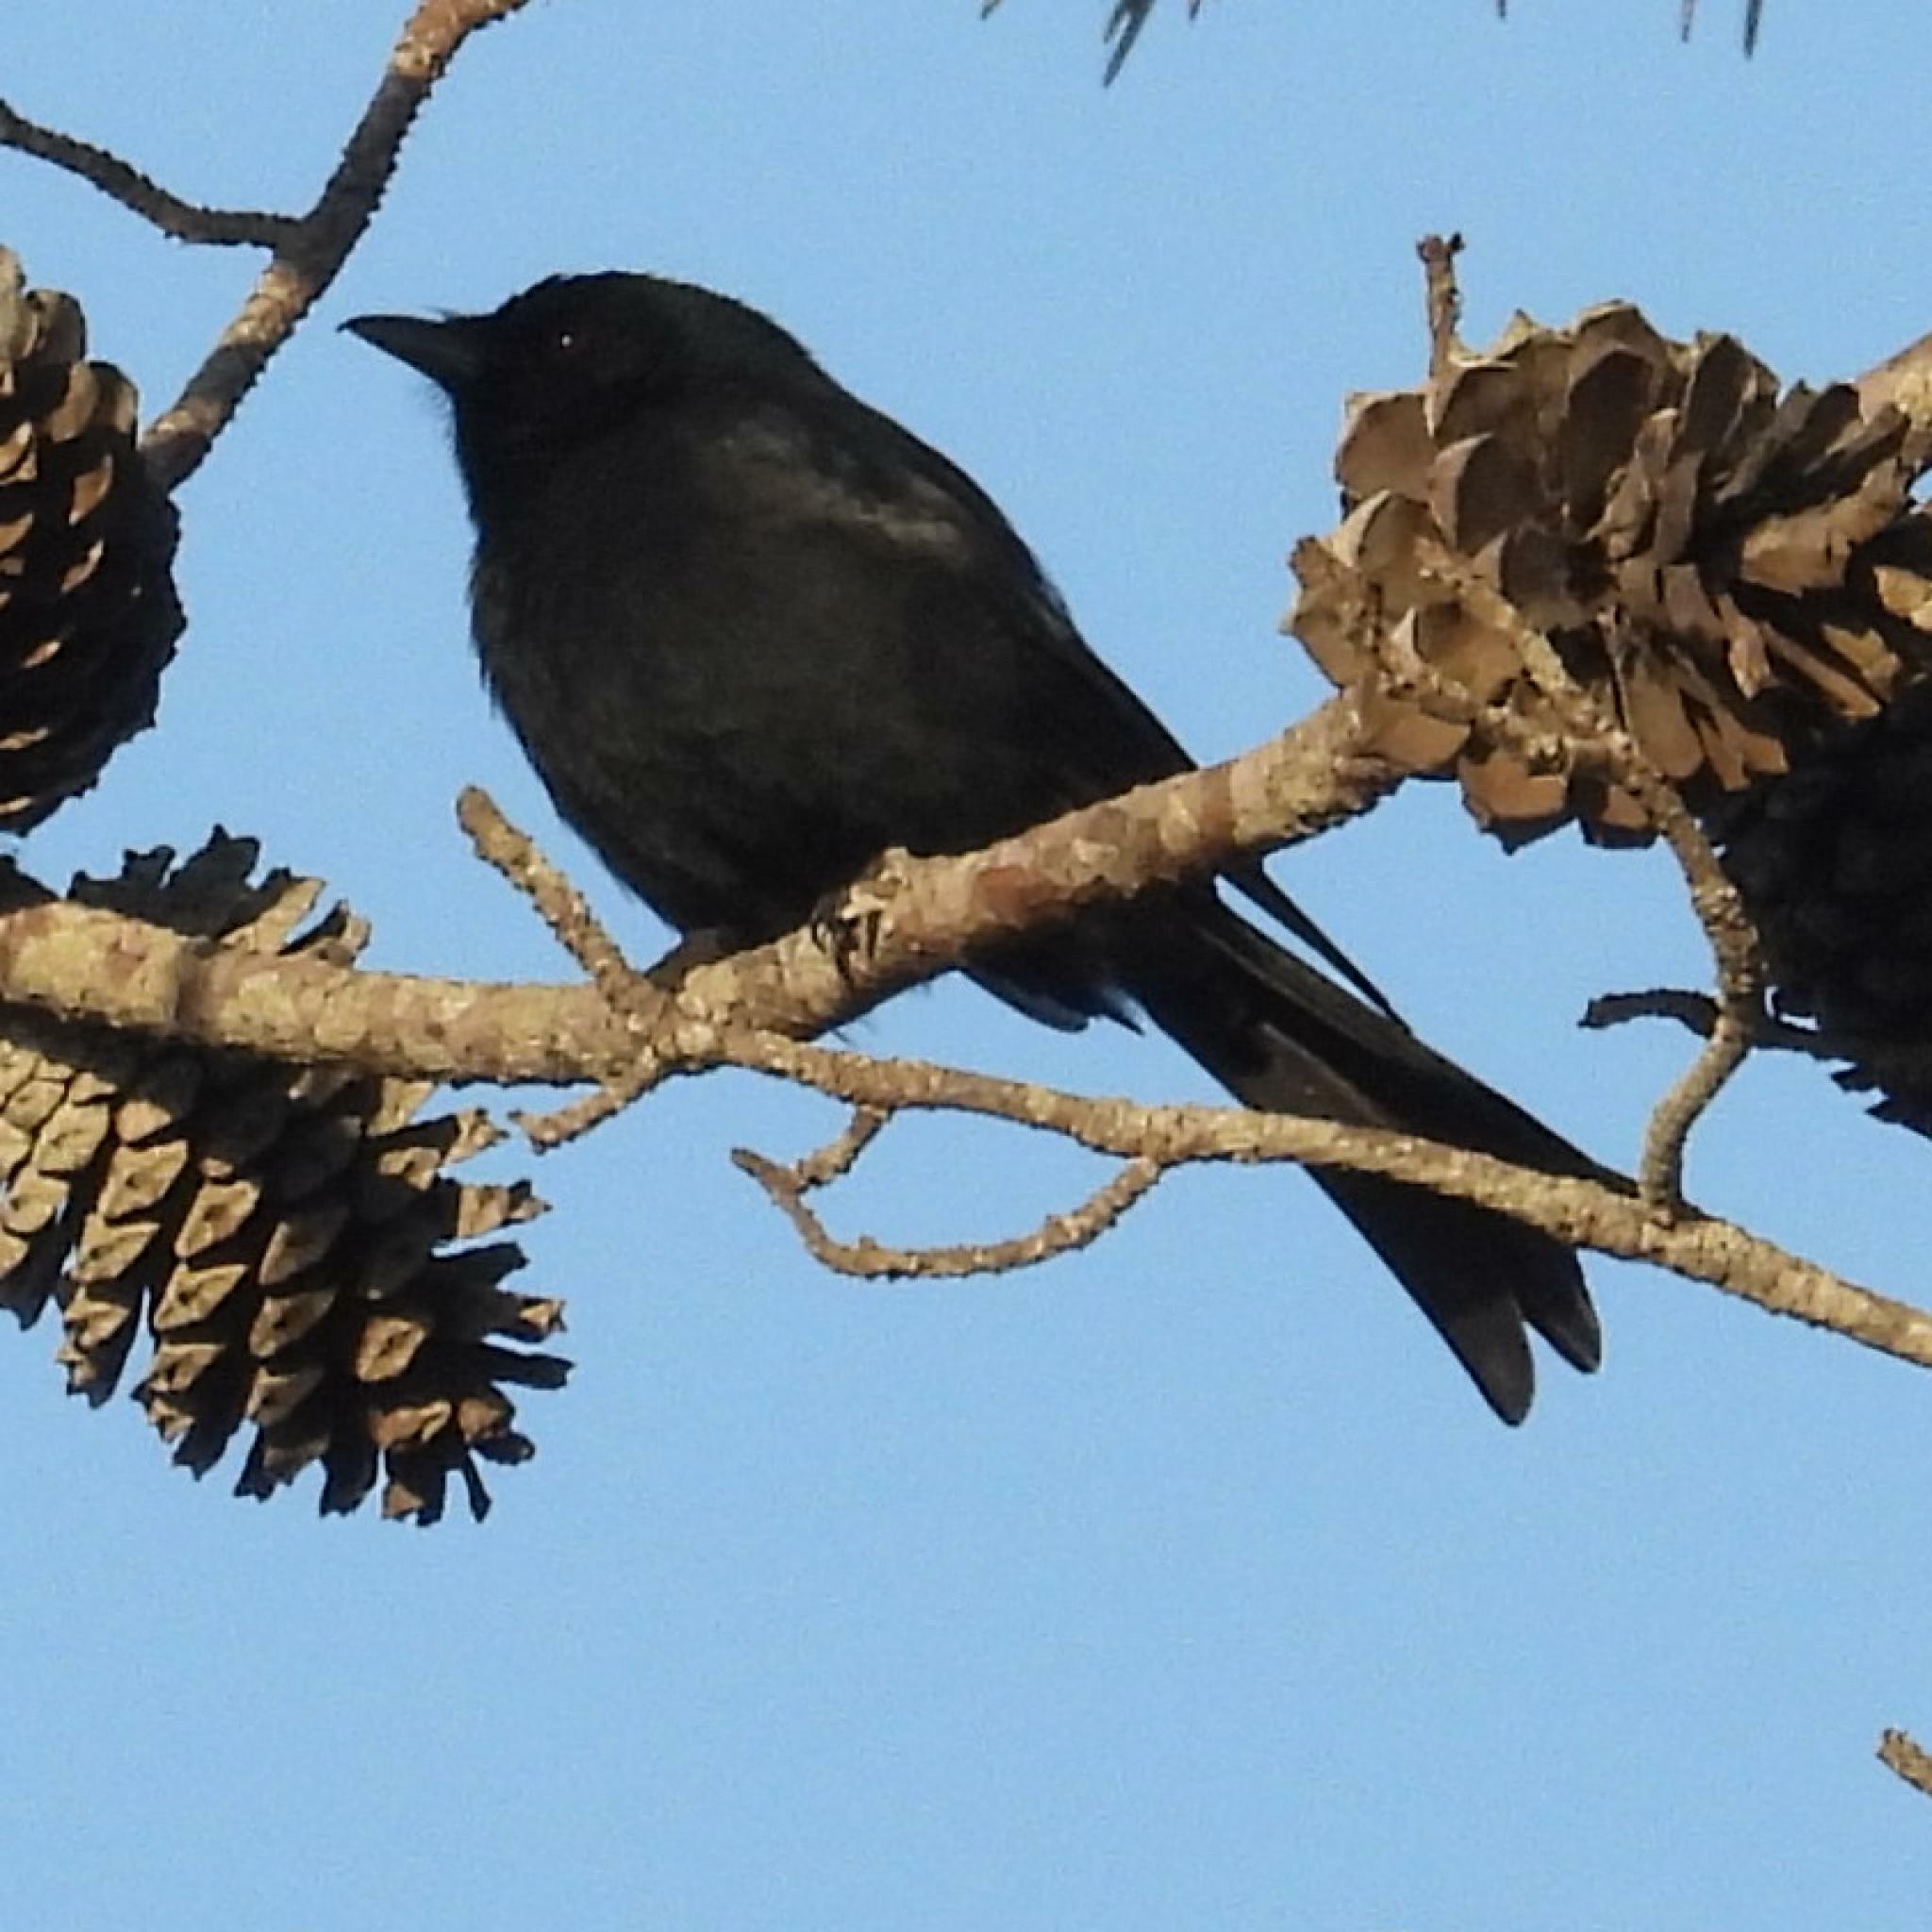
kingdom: Animalia
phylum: Chordata
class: Aves
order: Passeriformes
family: Dicruridae
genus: Dicrurus
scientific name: Dicrurus adsimilis
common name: Fork-tailed drongo
